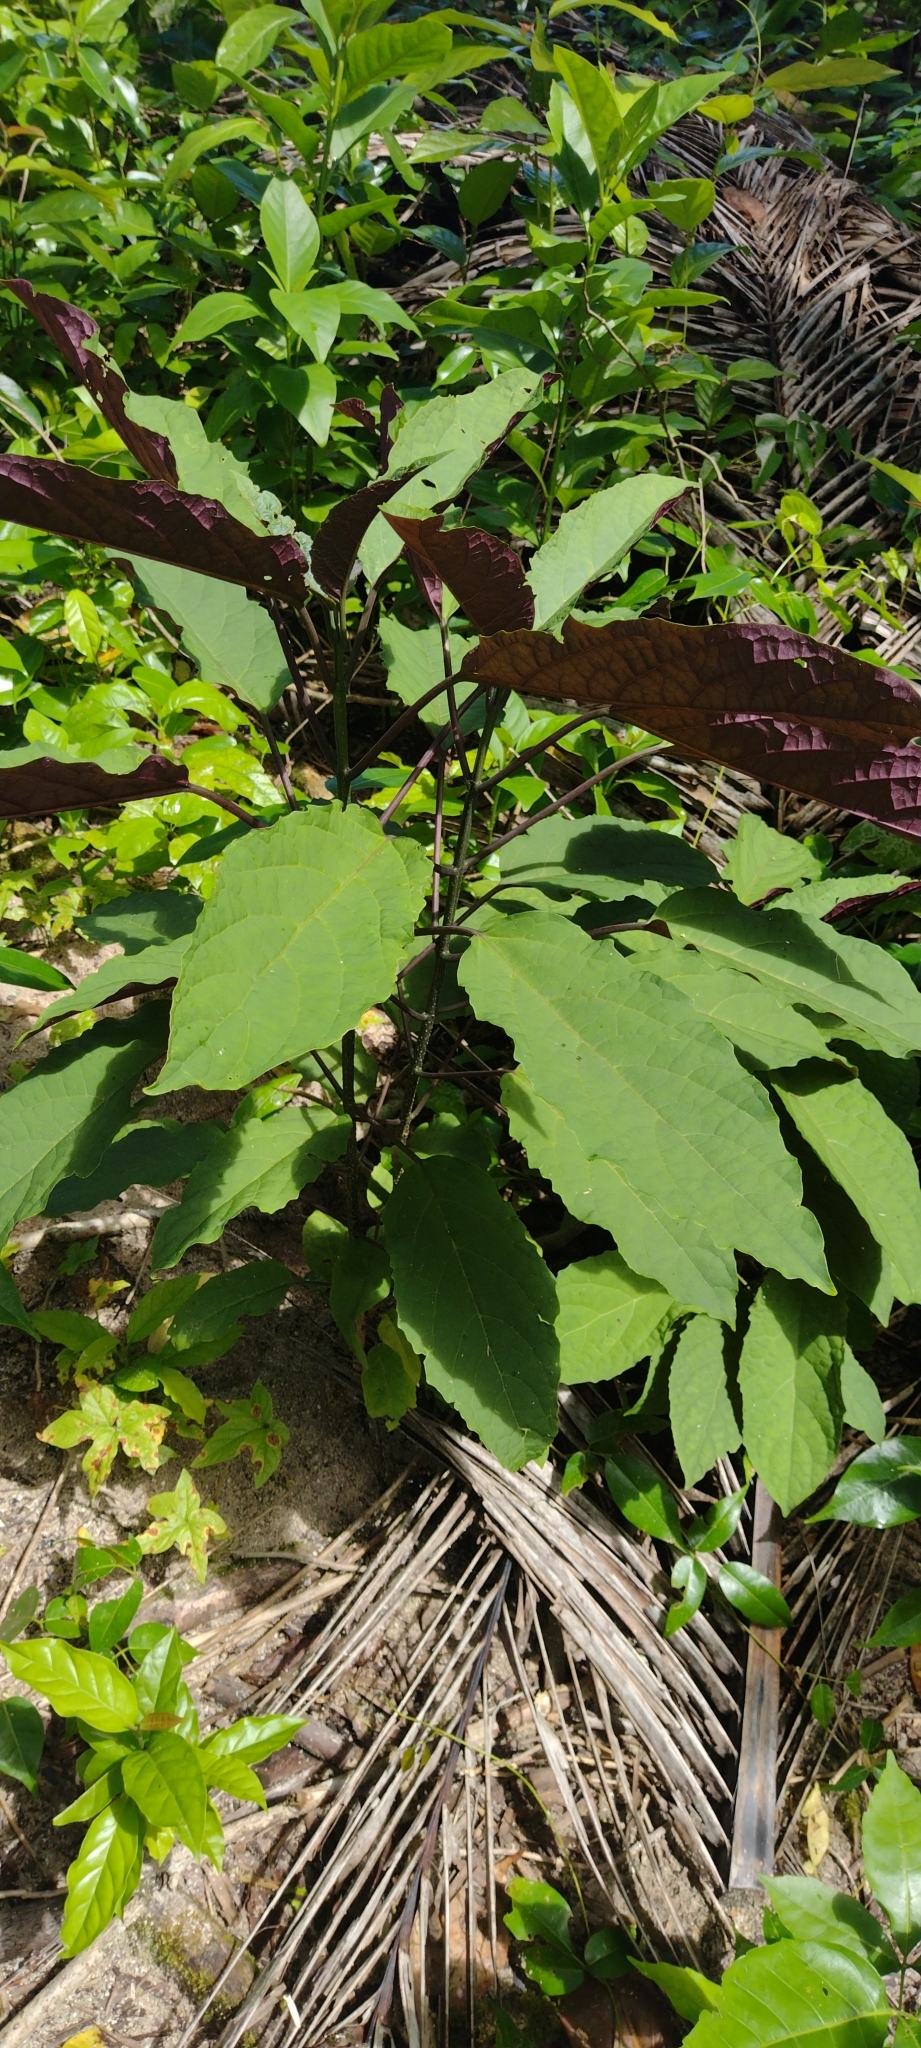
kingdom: Plantae
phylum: Tracheophyta
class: Magnoliopsida
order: Lamiales
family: Lamiaceae
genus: Clerodendrum
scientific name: Clerodendrum quadriloculare
